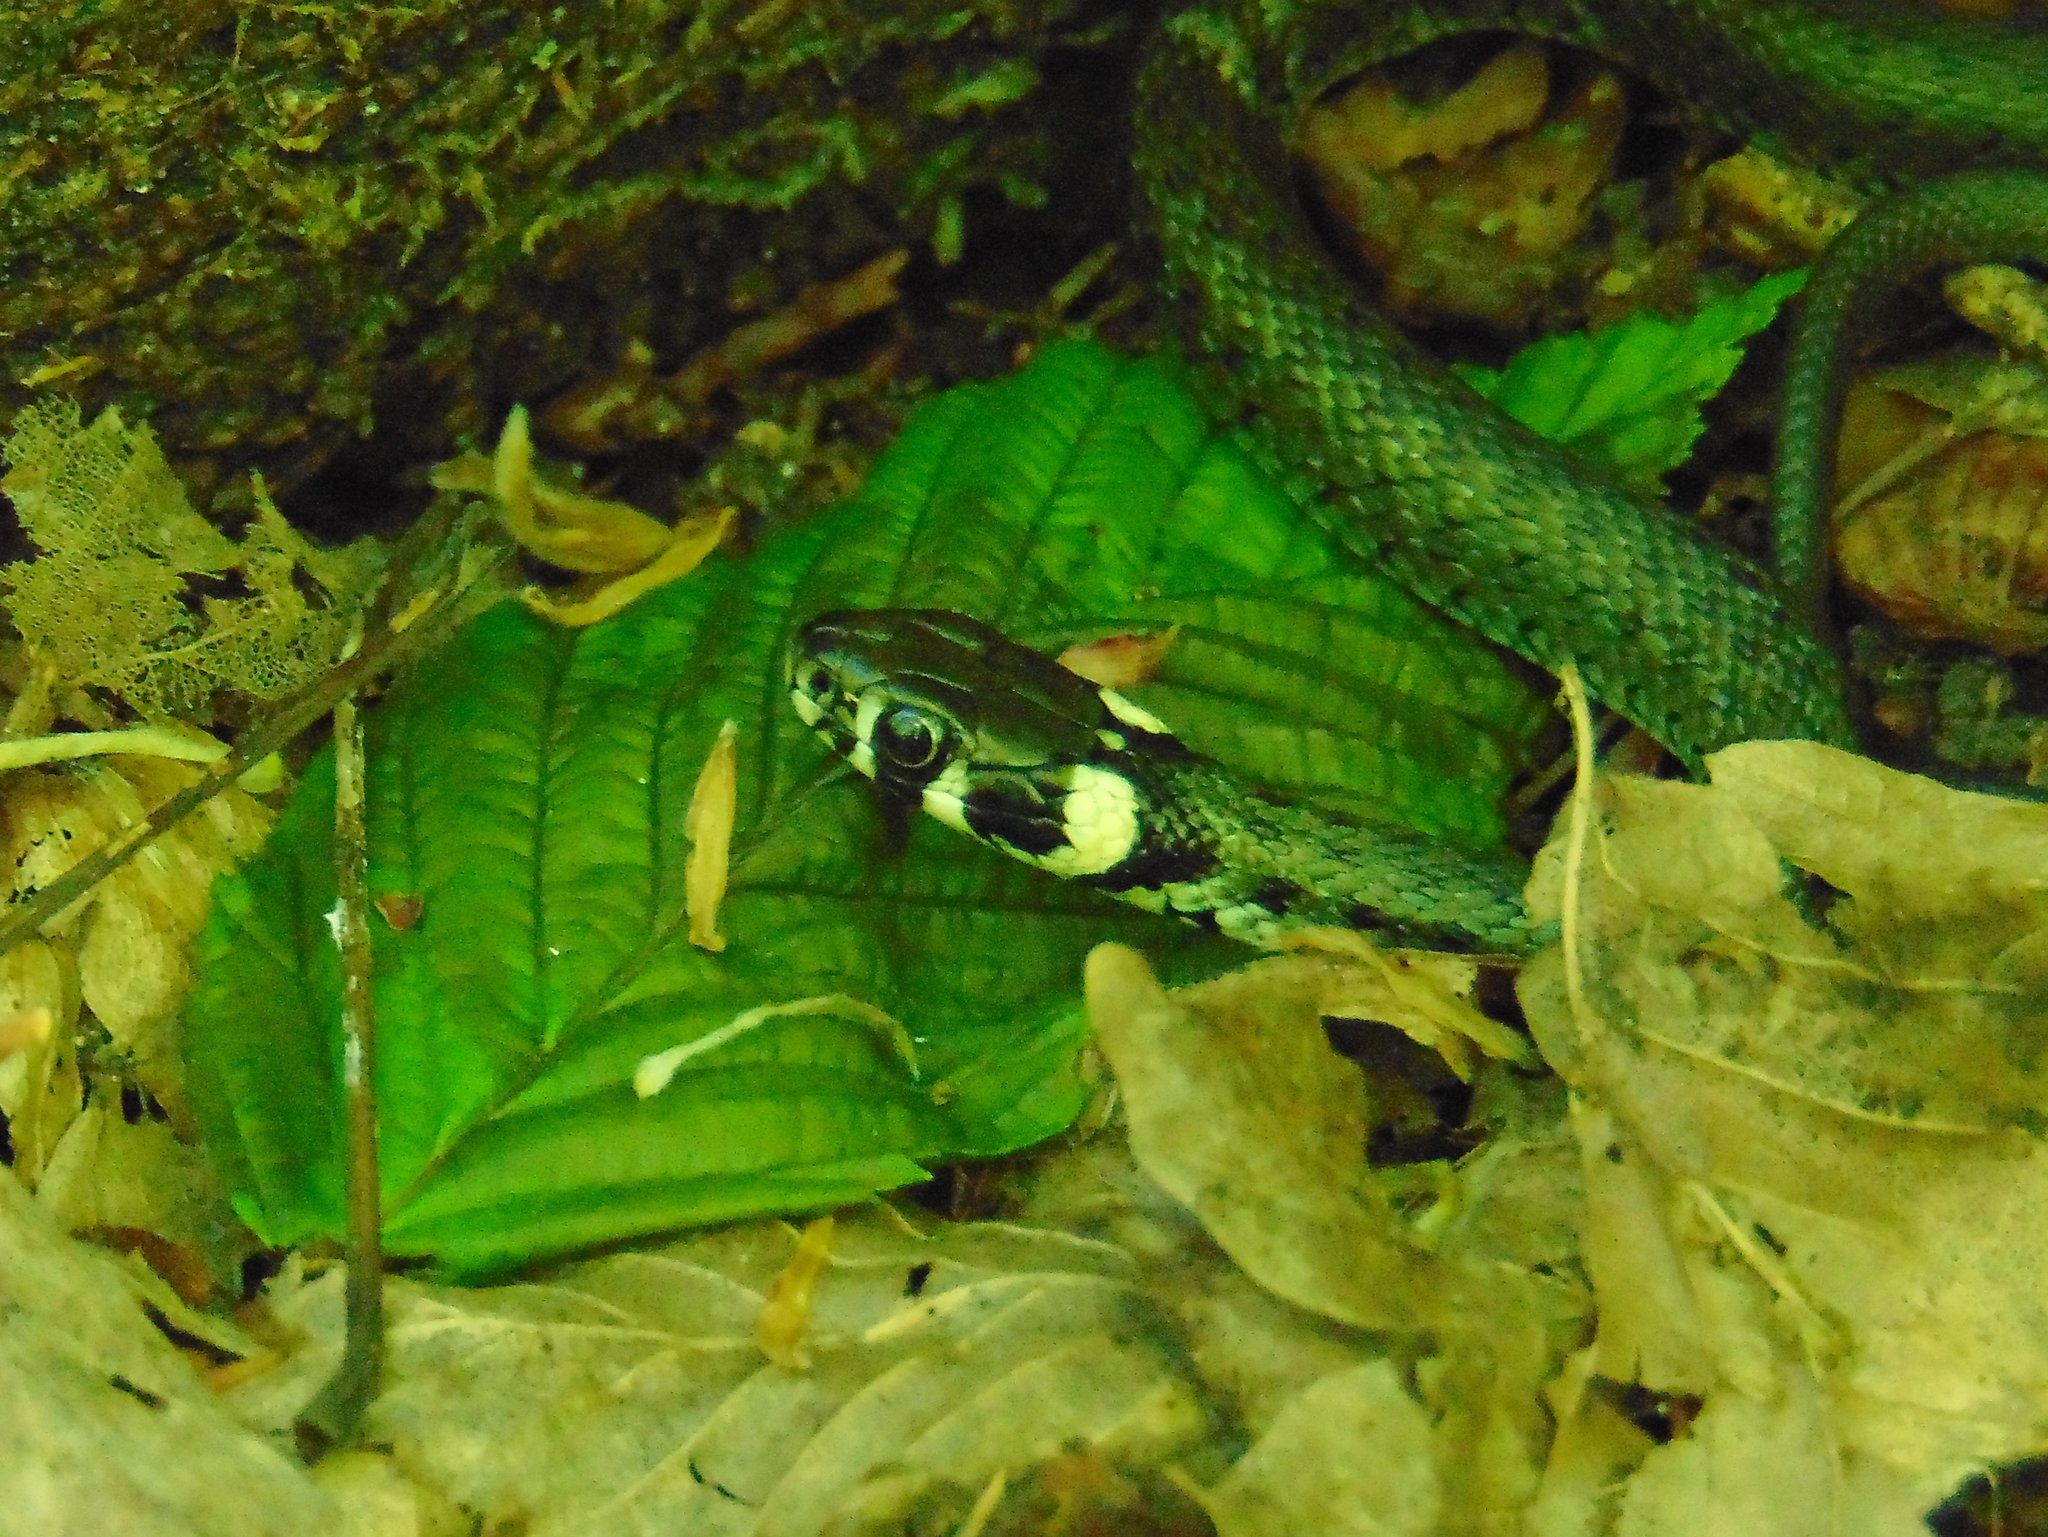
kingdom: Animalia
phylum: Chordata
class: Squamata
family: Colubridae
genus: Natrix
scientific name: Natrix natrix
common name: Grass snake
